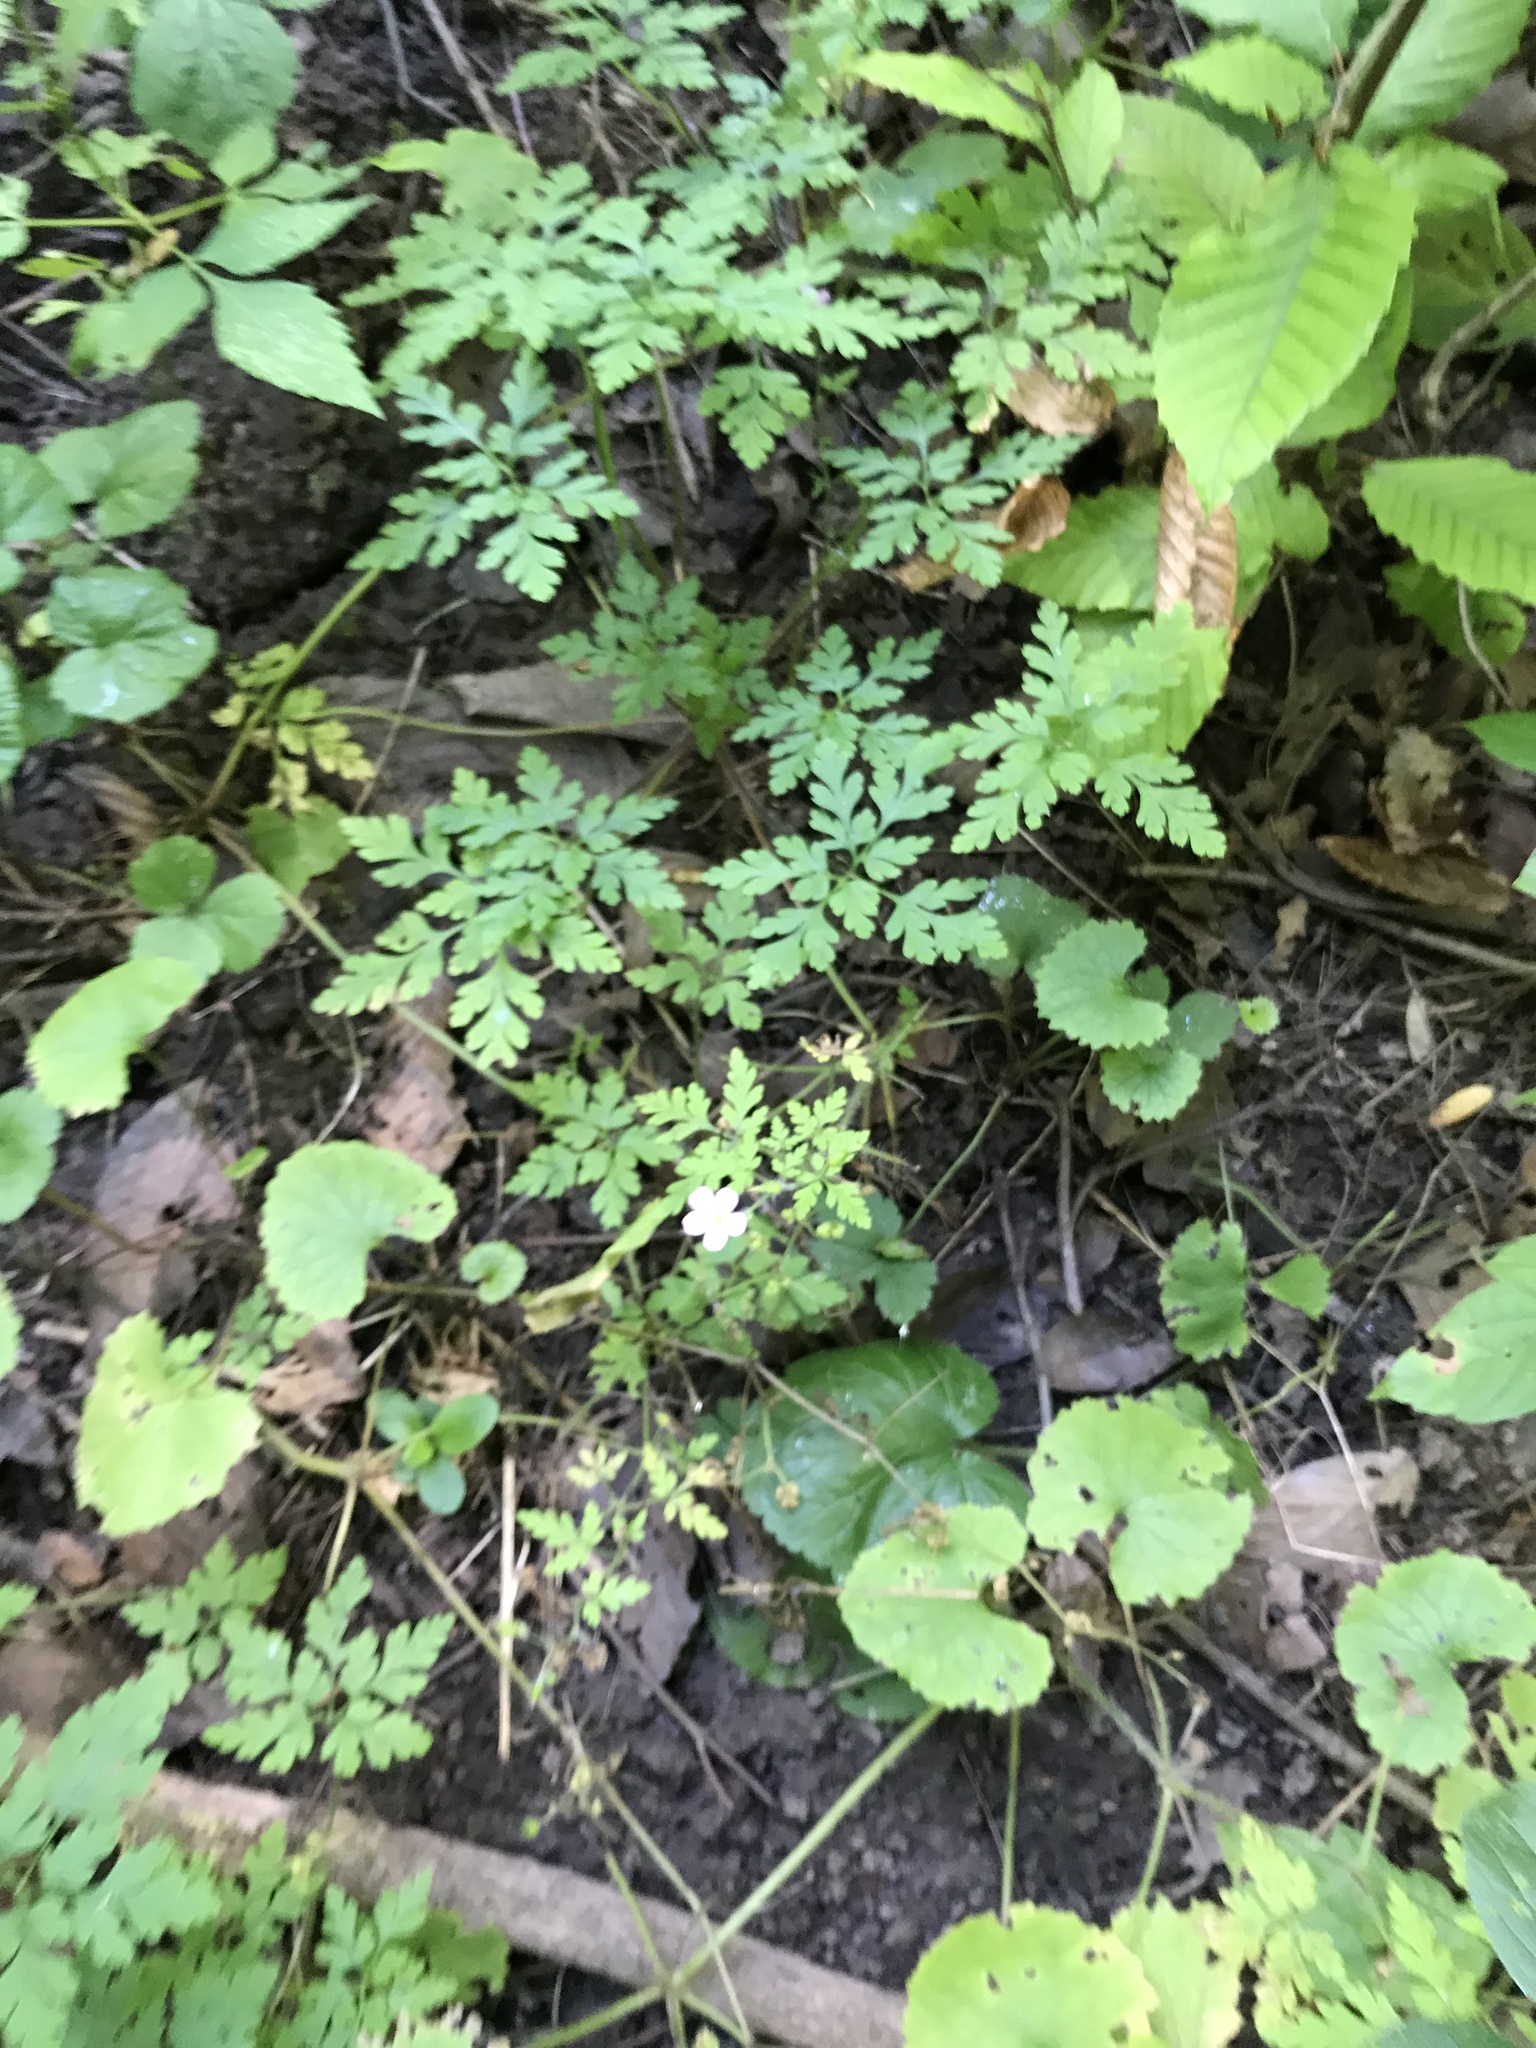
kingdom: Plantae
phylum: Tracheophyta
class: Magnoliopsida
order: Geraniales
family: Geraniaceae
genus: Geranium
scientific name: Geranium robertianum
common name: Herb-robert
